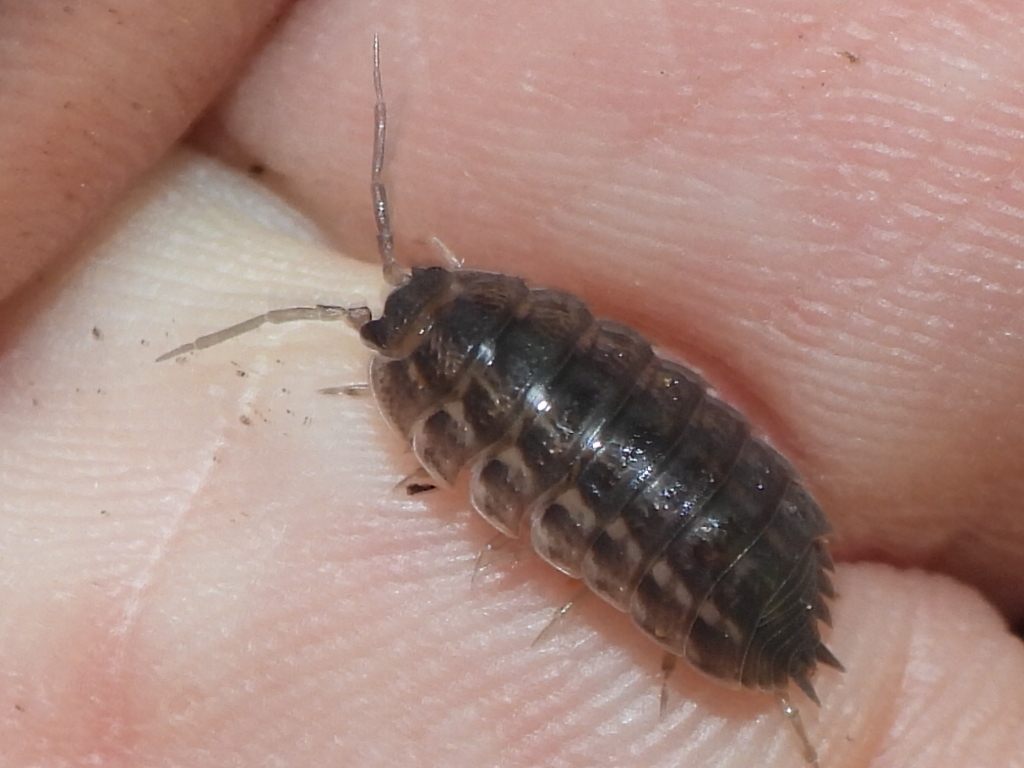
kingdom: Animalia
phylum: Arthropoda
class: Malacostraca
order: Isopoda
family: Trachelipodidae
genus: Trachelipus
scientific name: Trachelipus rathkii
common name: Isopod
